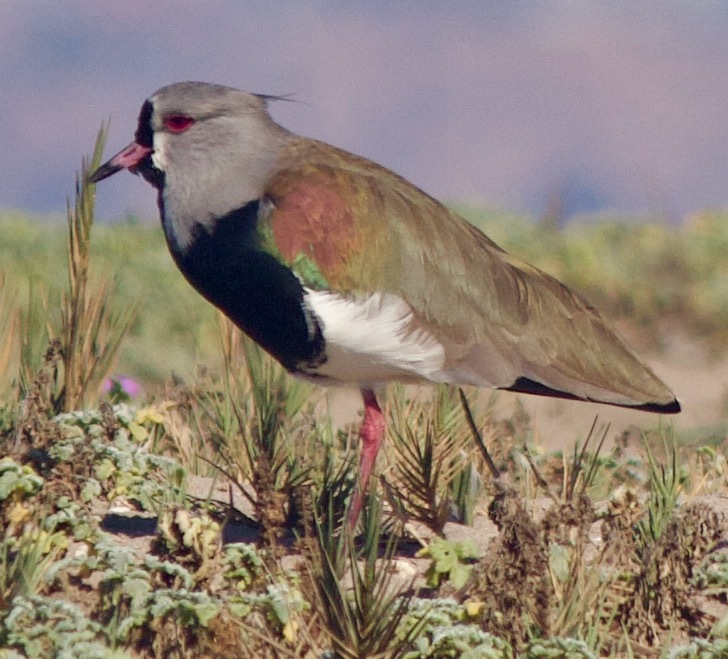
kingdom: Animalia
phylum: Chordata
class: Aves
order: Charadriiformes
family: Charadriidae
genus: Vanellus
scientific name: Vanellus chilensis
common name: Southern lapwing
